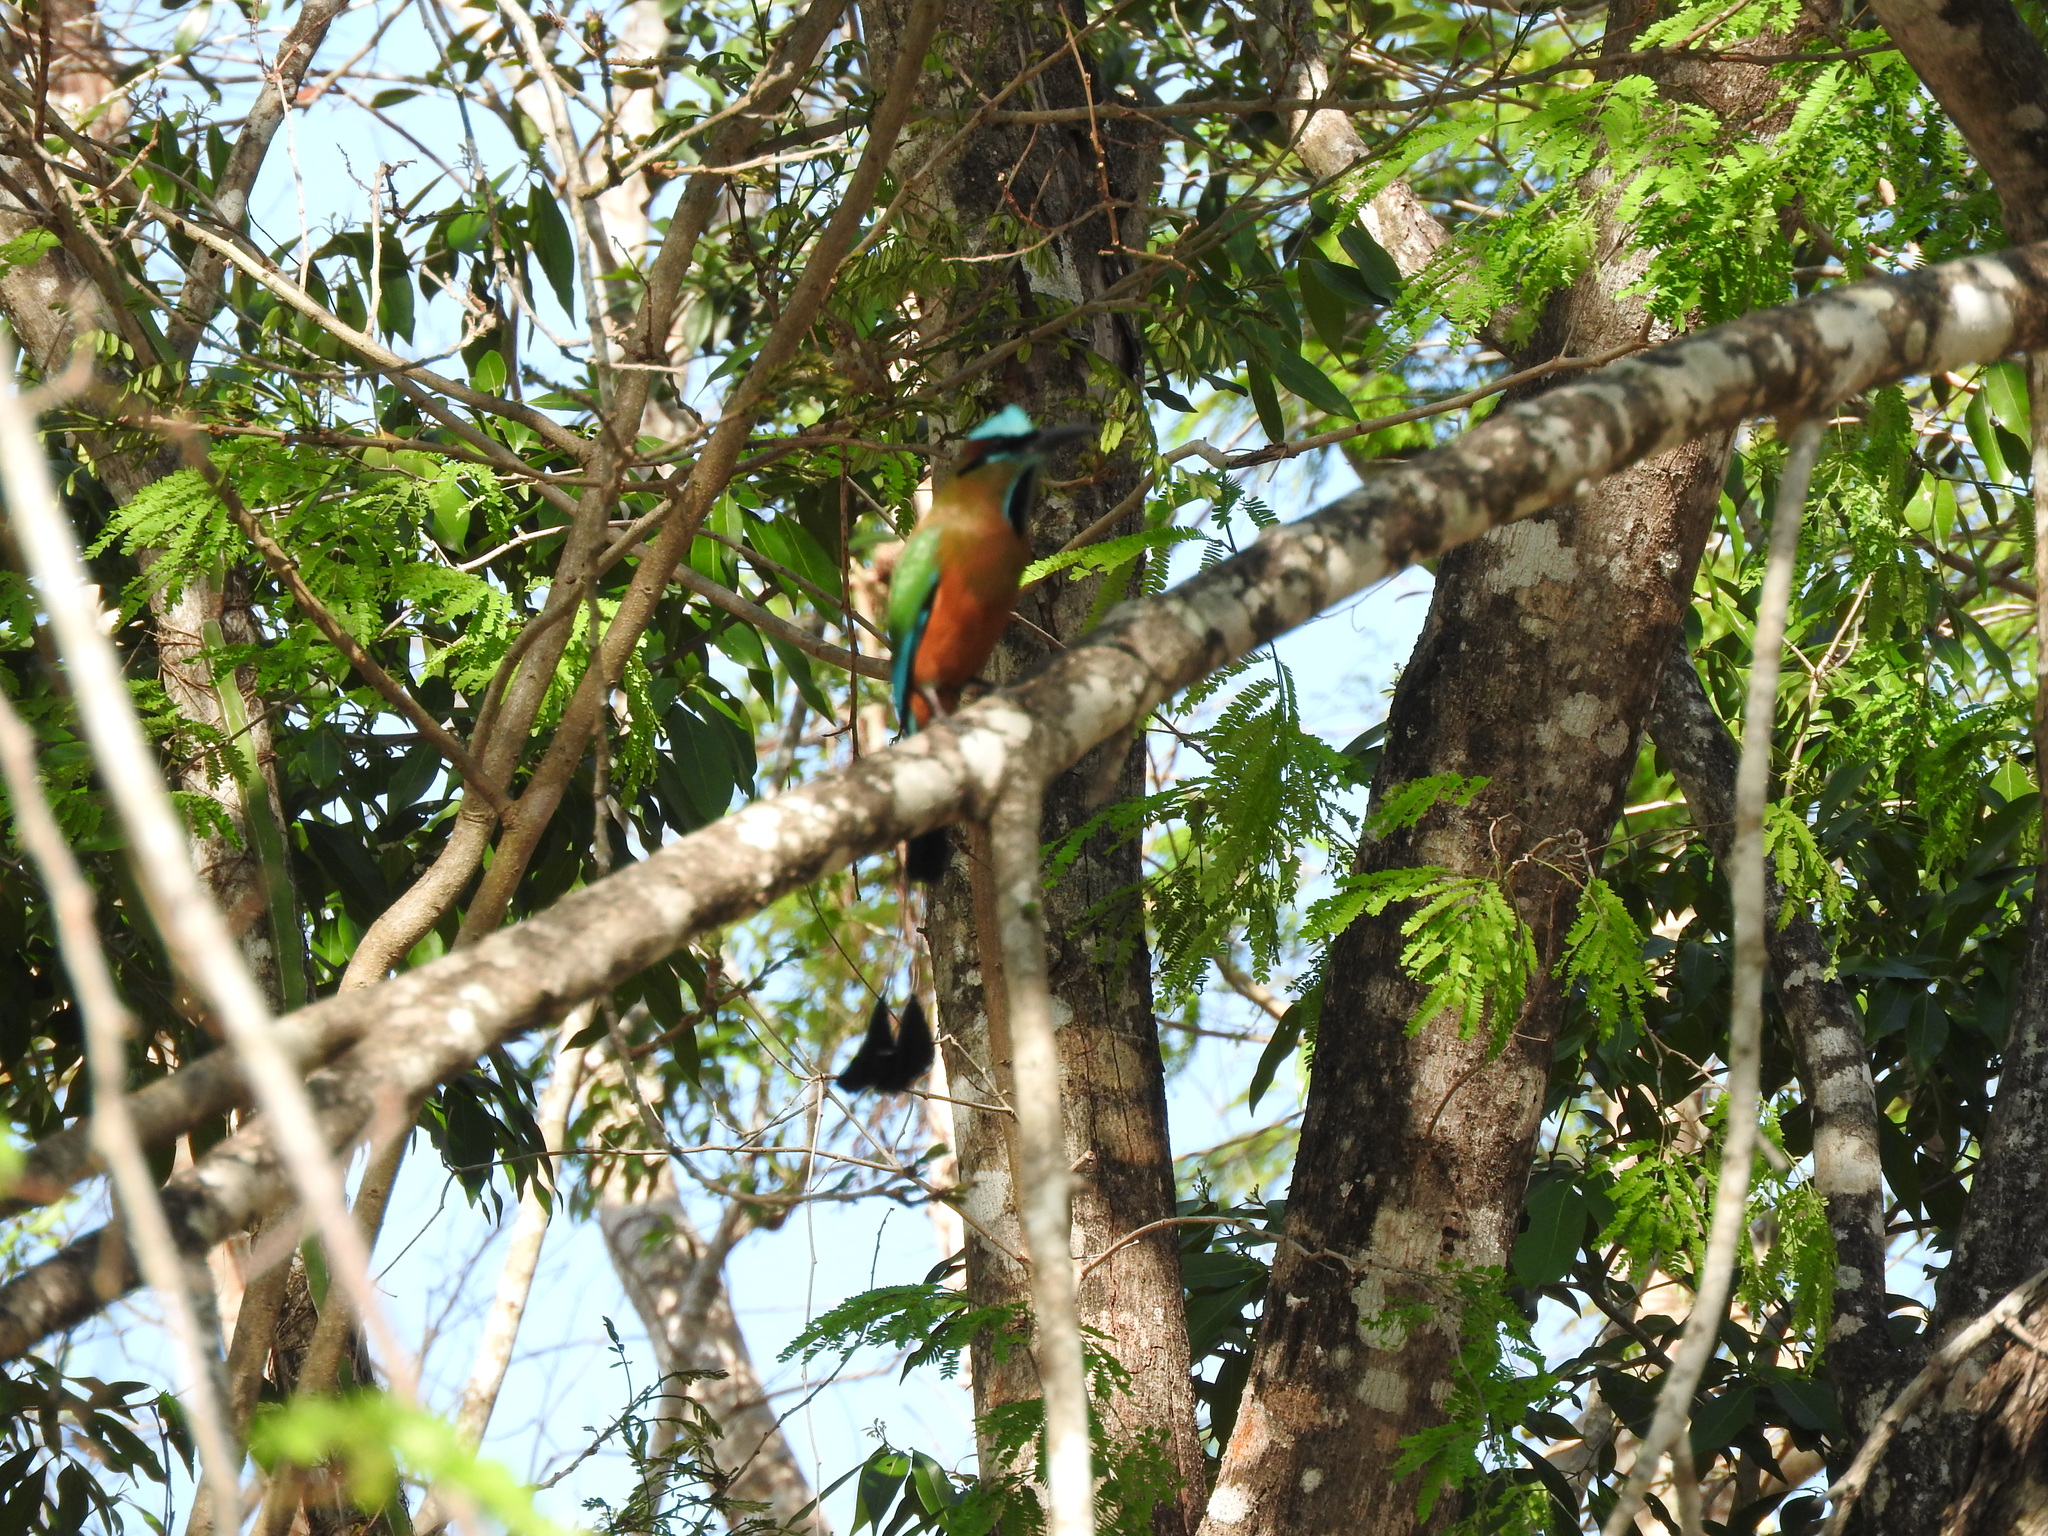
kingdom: Animalia
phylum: Chordata
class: Aves
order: Coraciiformes
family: Momotidae
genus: Eumomota
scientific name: Eumomota superciliosa
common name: Turquoise-browed motmot
